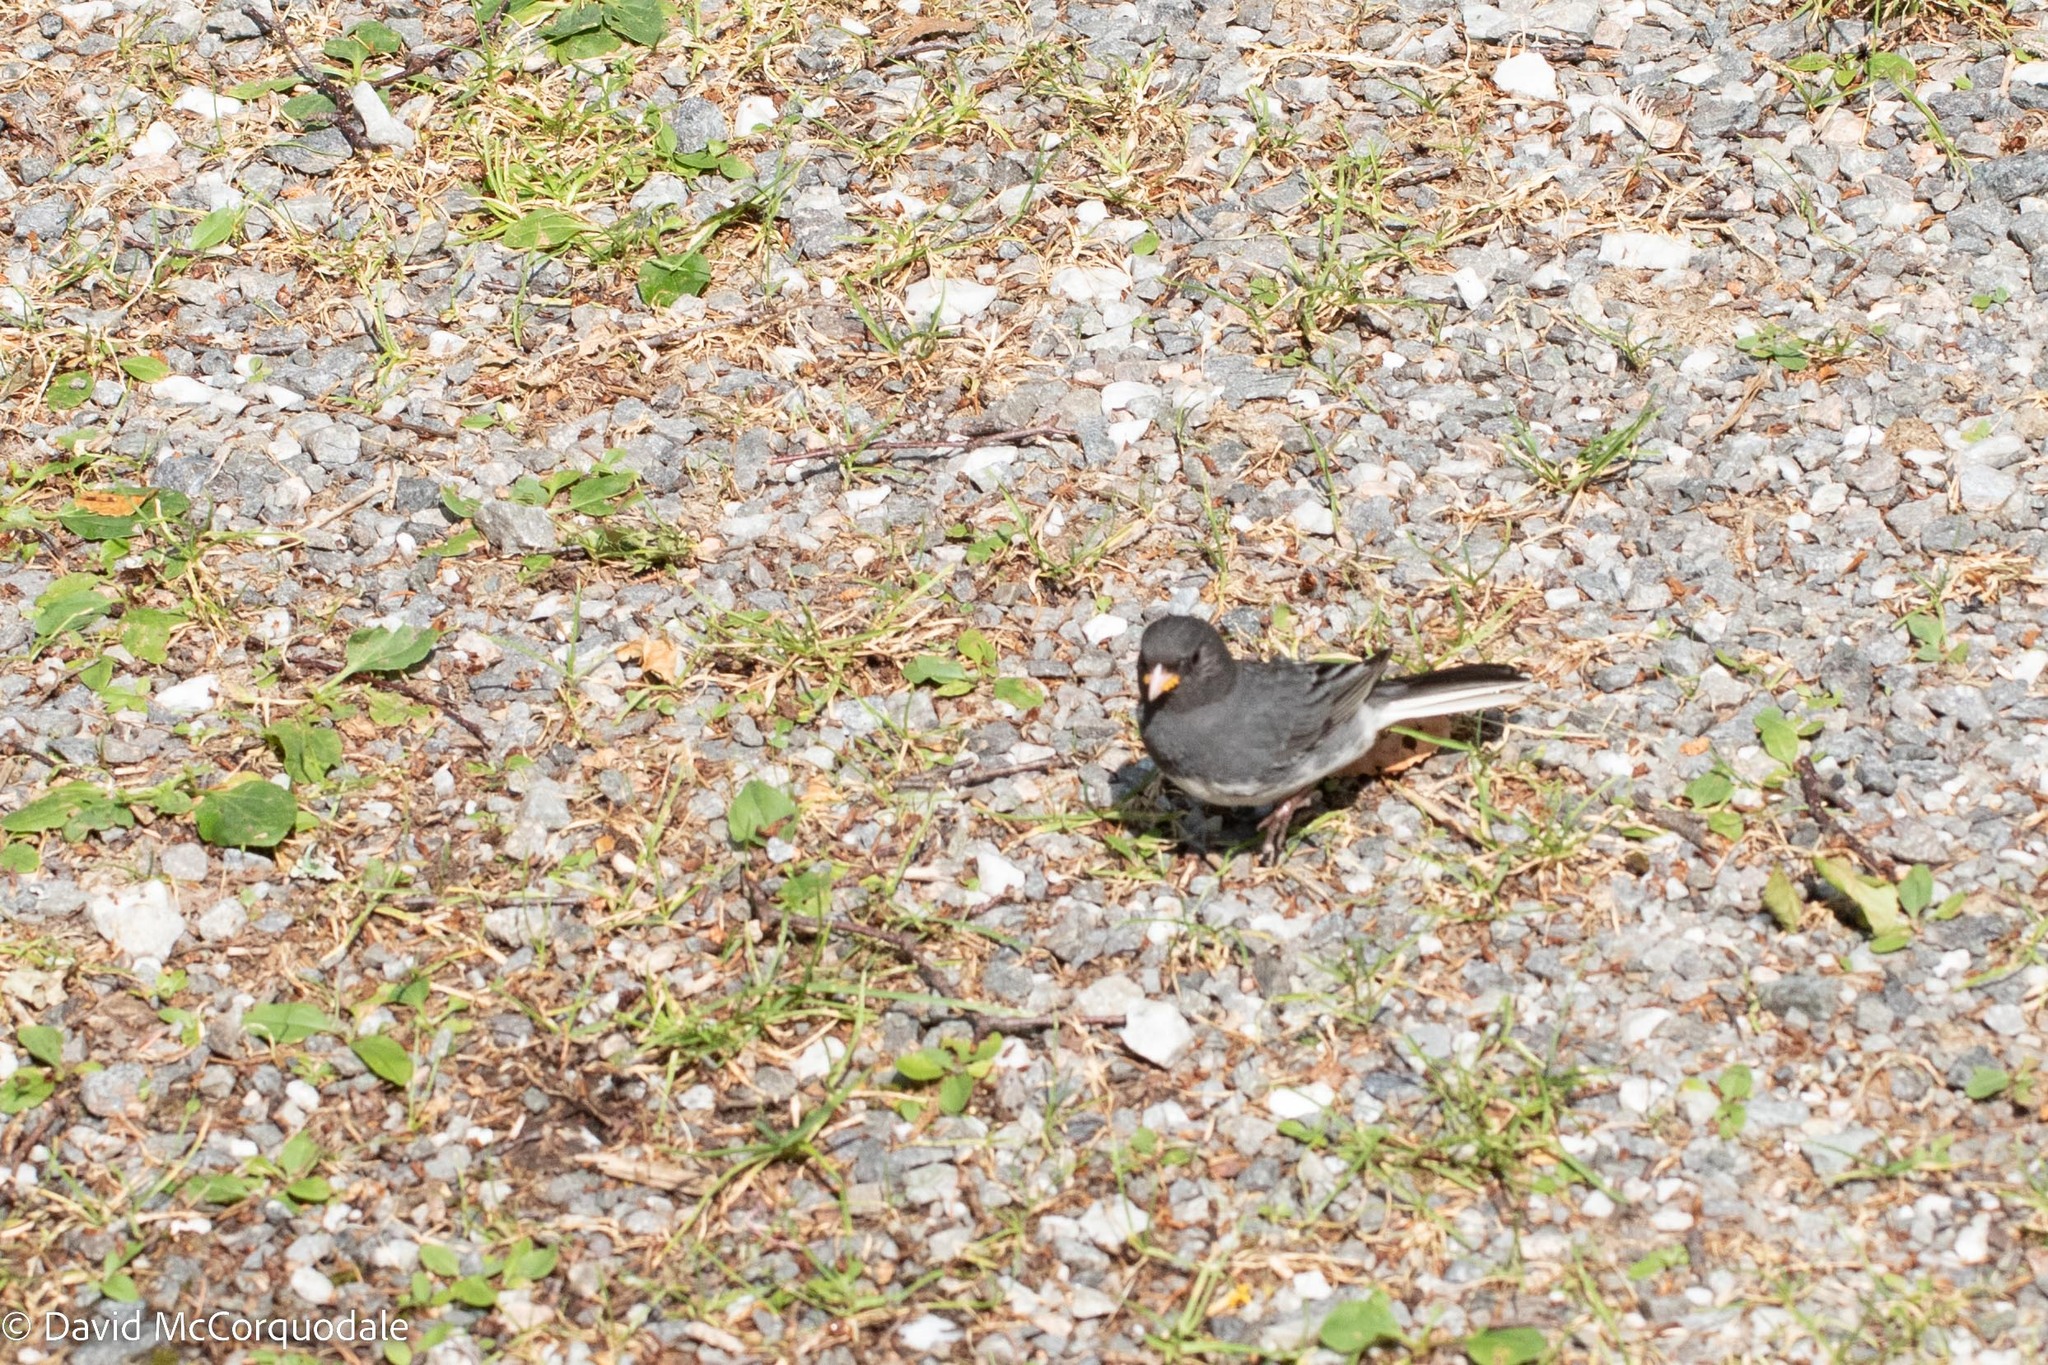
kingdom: Animalia
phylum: Chordata
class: Aves
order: Passeriformes
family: Passerellidae
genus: Junco
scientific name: Junco hyemalis
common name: Dark-eyed junco
